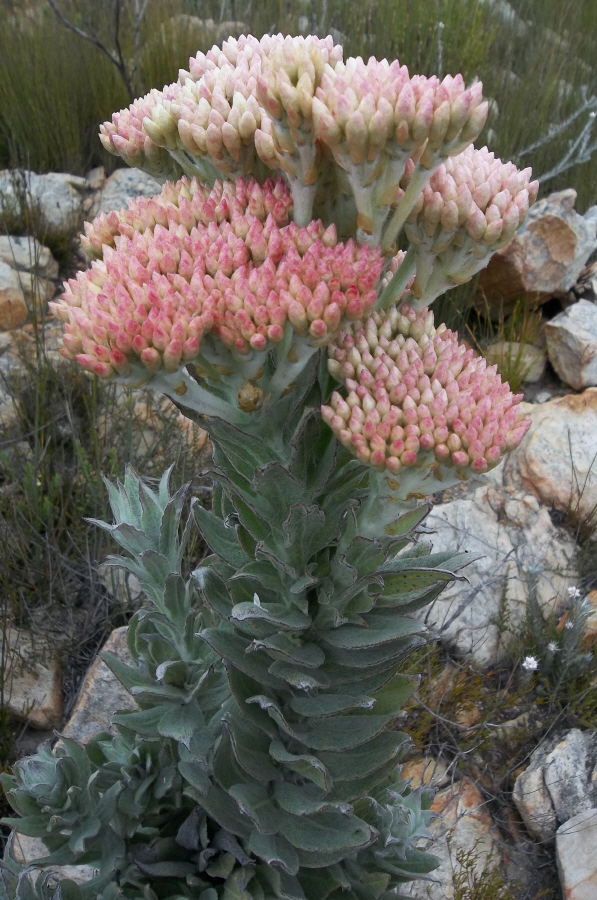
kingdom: Plantae
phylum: Tracheophyta
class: Magnoliopsida
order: Asterales
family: Asteraceae
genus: Syncarpha
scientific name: Syncarpha milleflora
